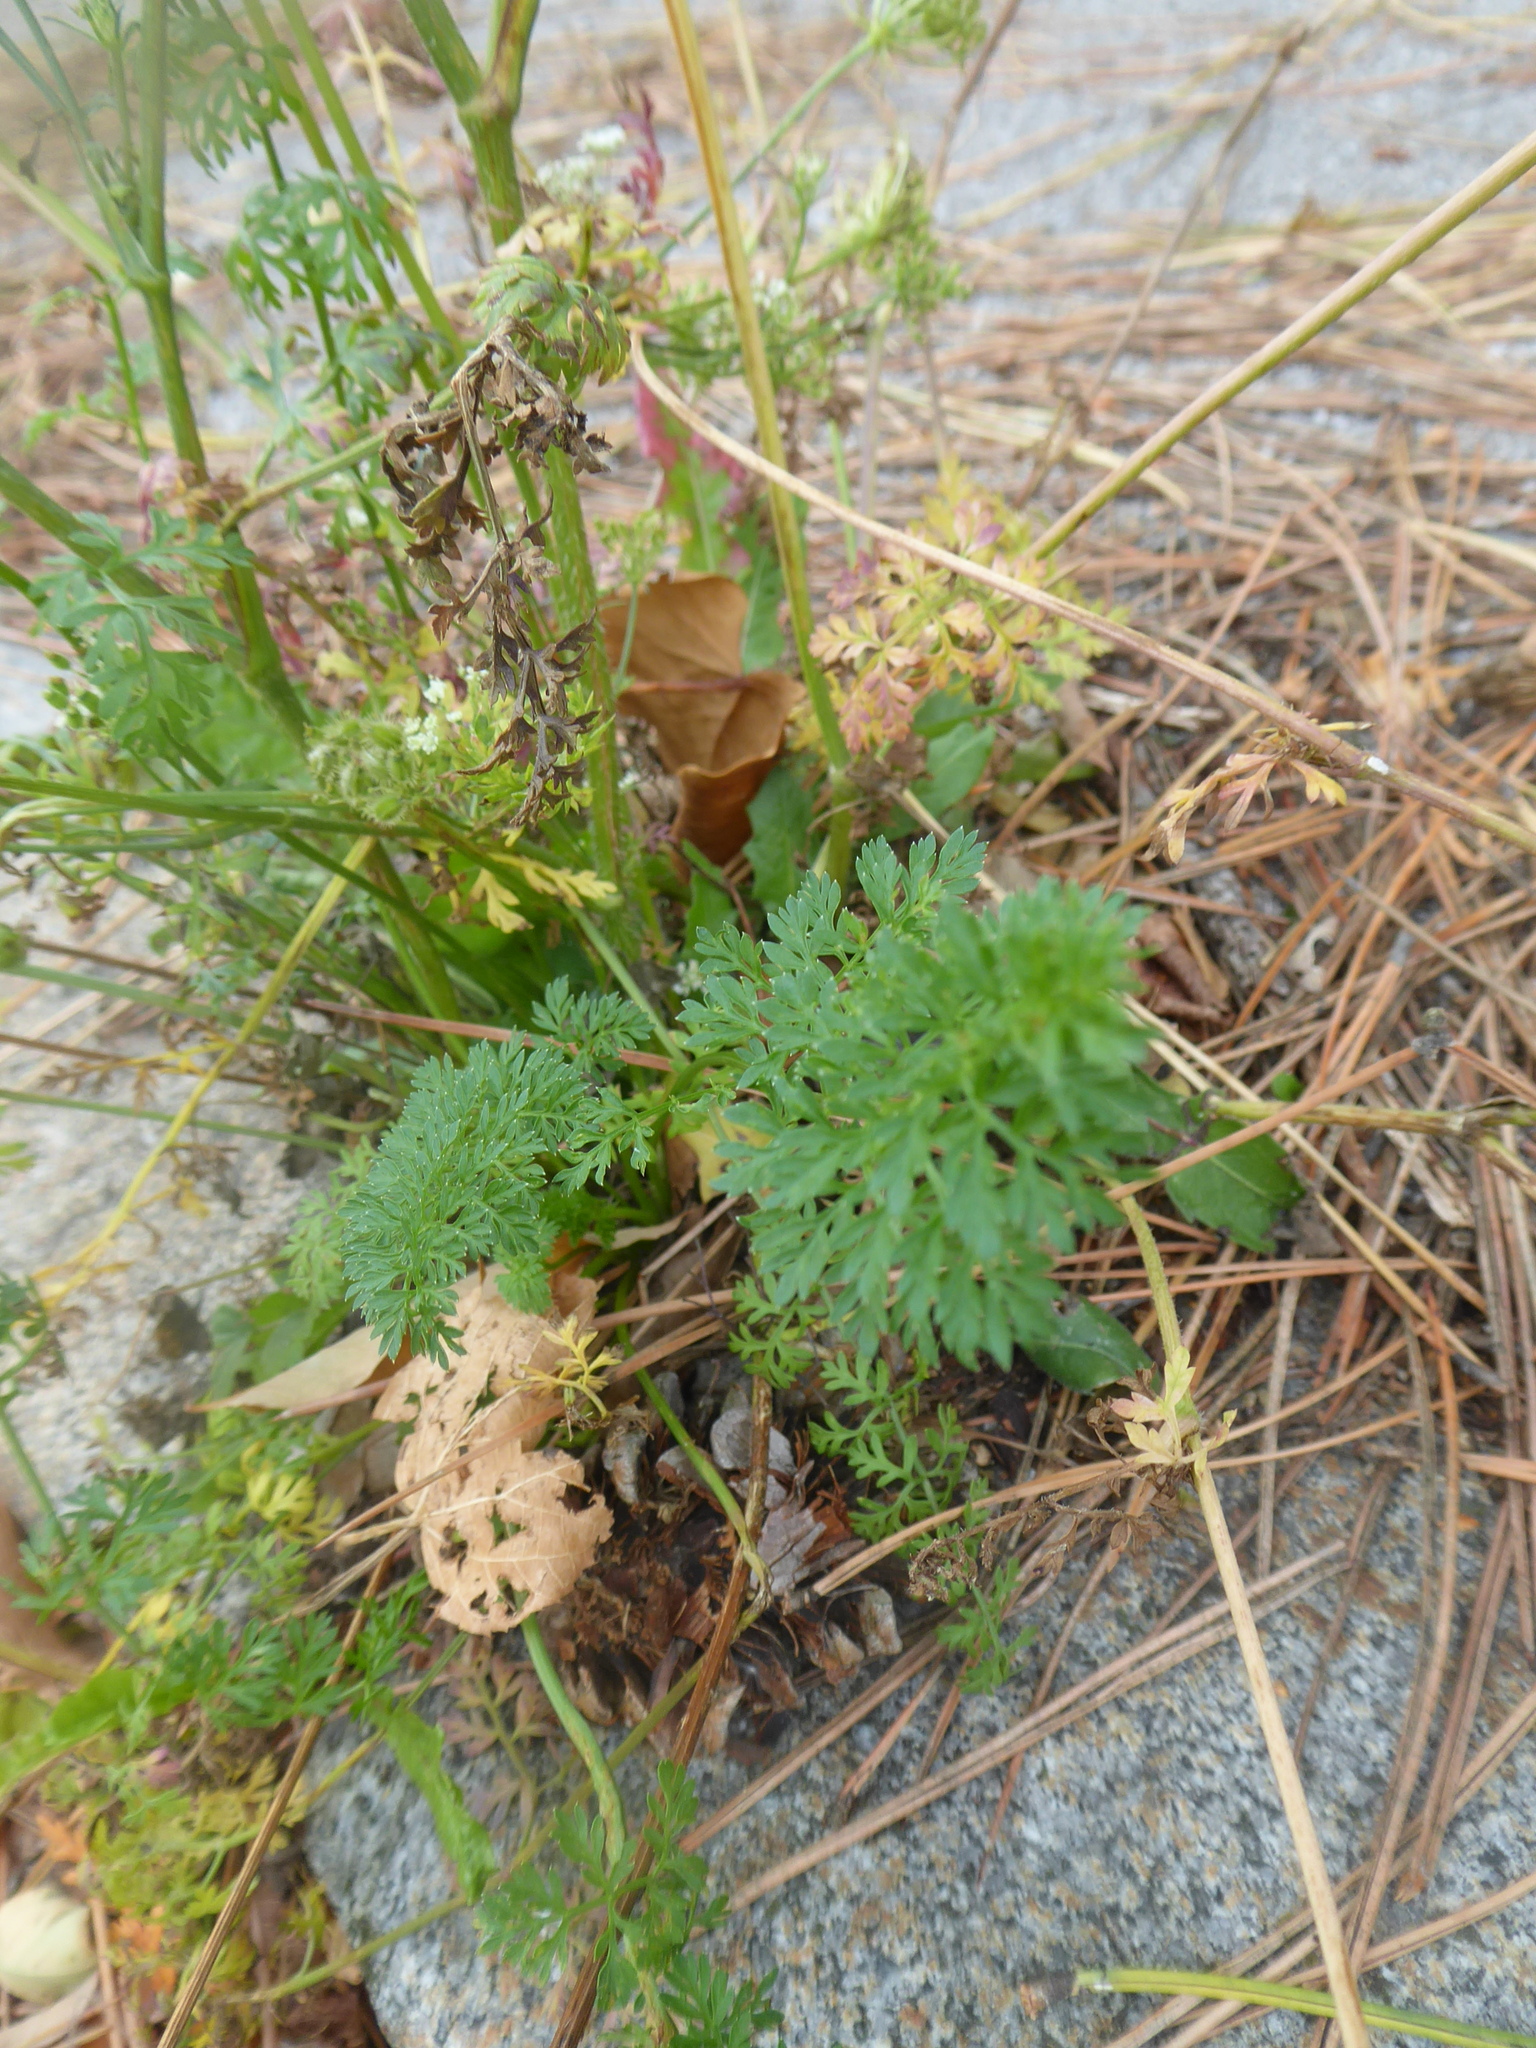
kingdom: Plantae
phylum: Tracheophyta
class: Magnoliopsida
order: Apiales
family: Apiaceae
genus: Daucus
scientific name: Daucus carota
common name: Wild carrot
